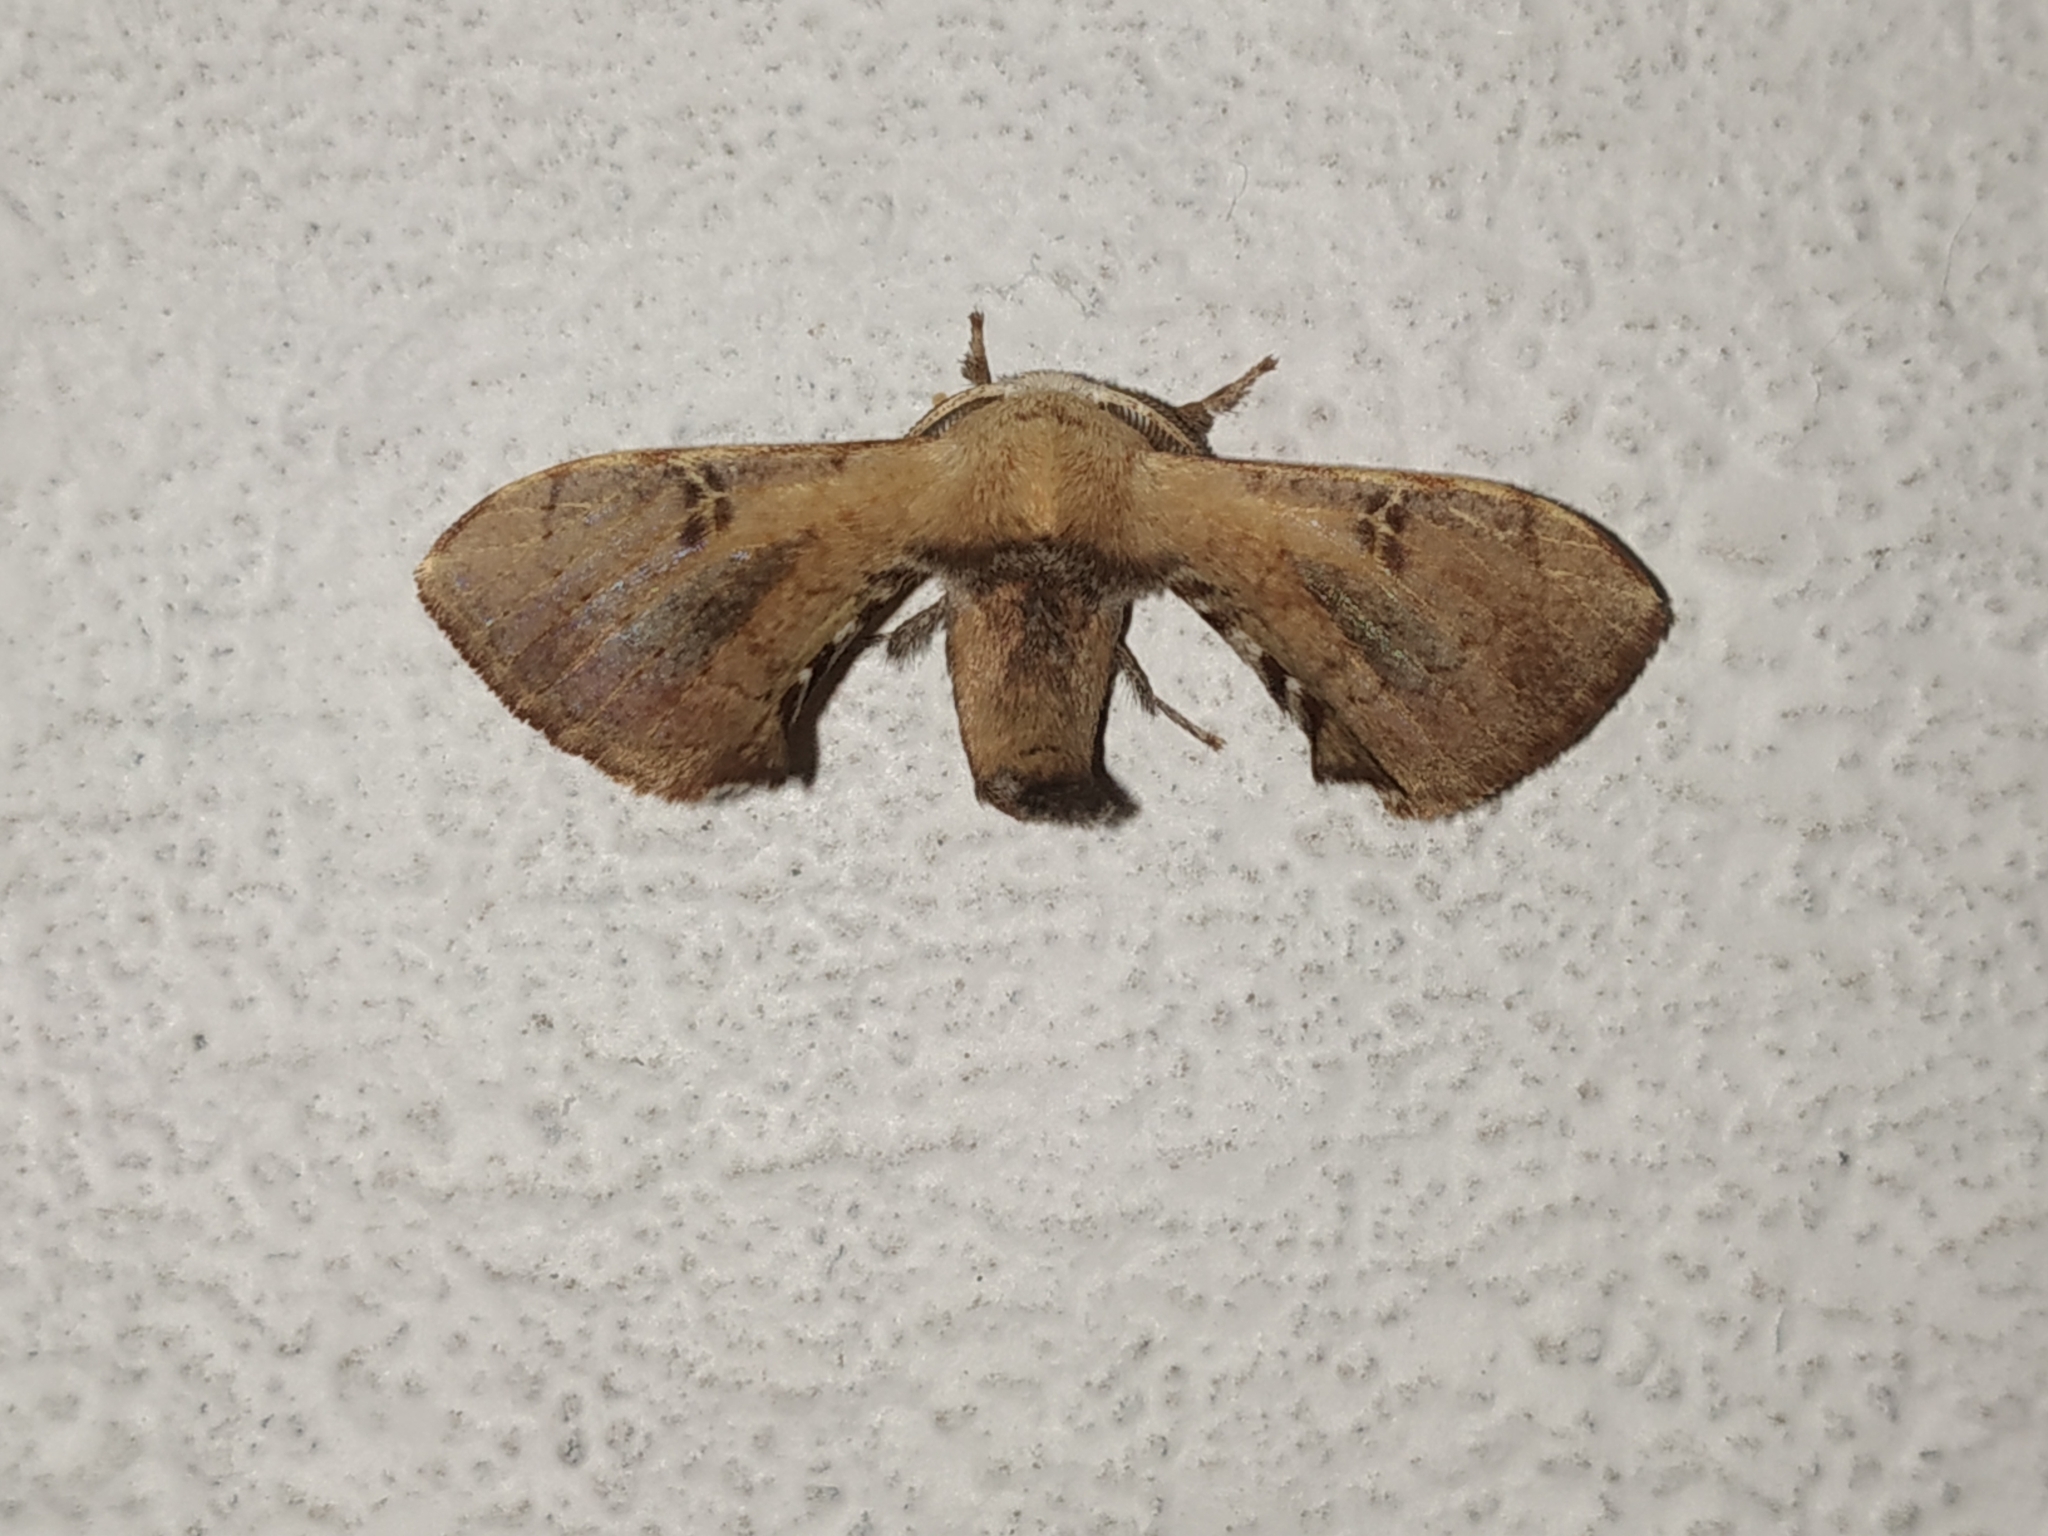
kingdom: Animalia
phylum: Arthropoda
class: Insecta
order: Lepidoptera
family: Bombycidae
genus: Trilocha
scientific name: Trilocha varians
